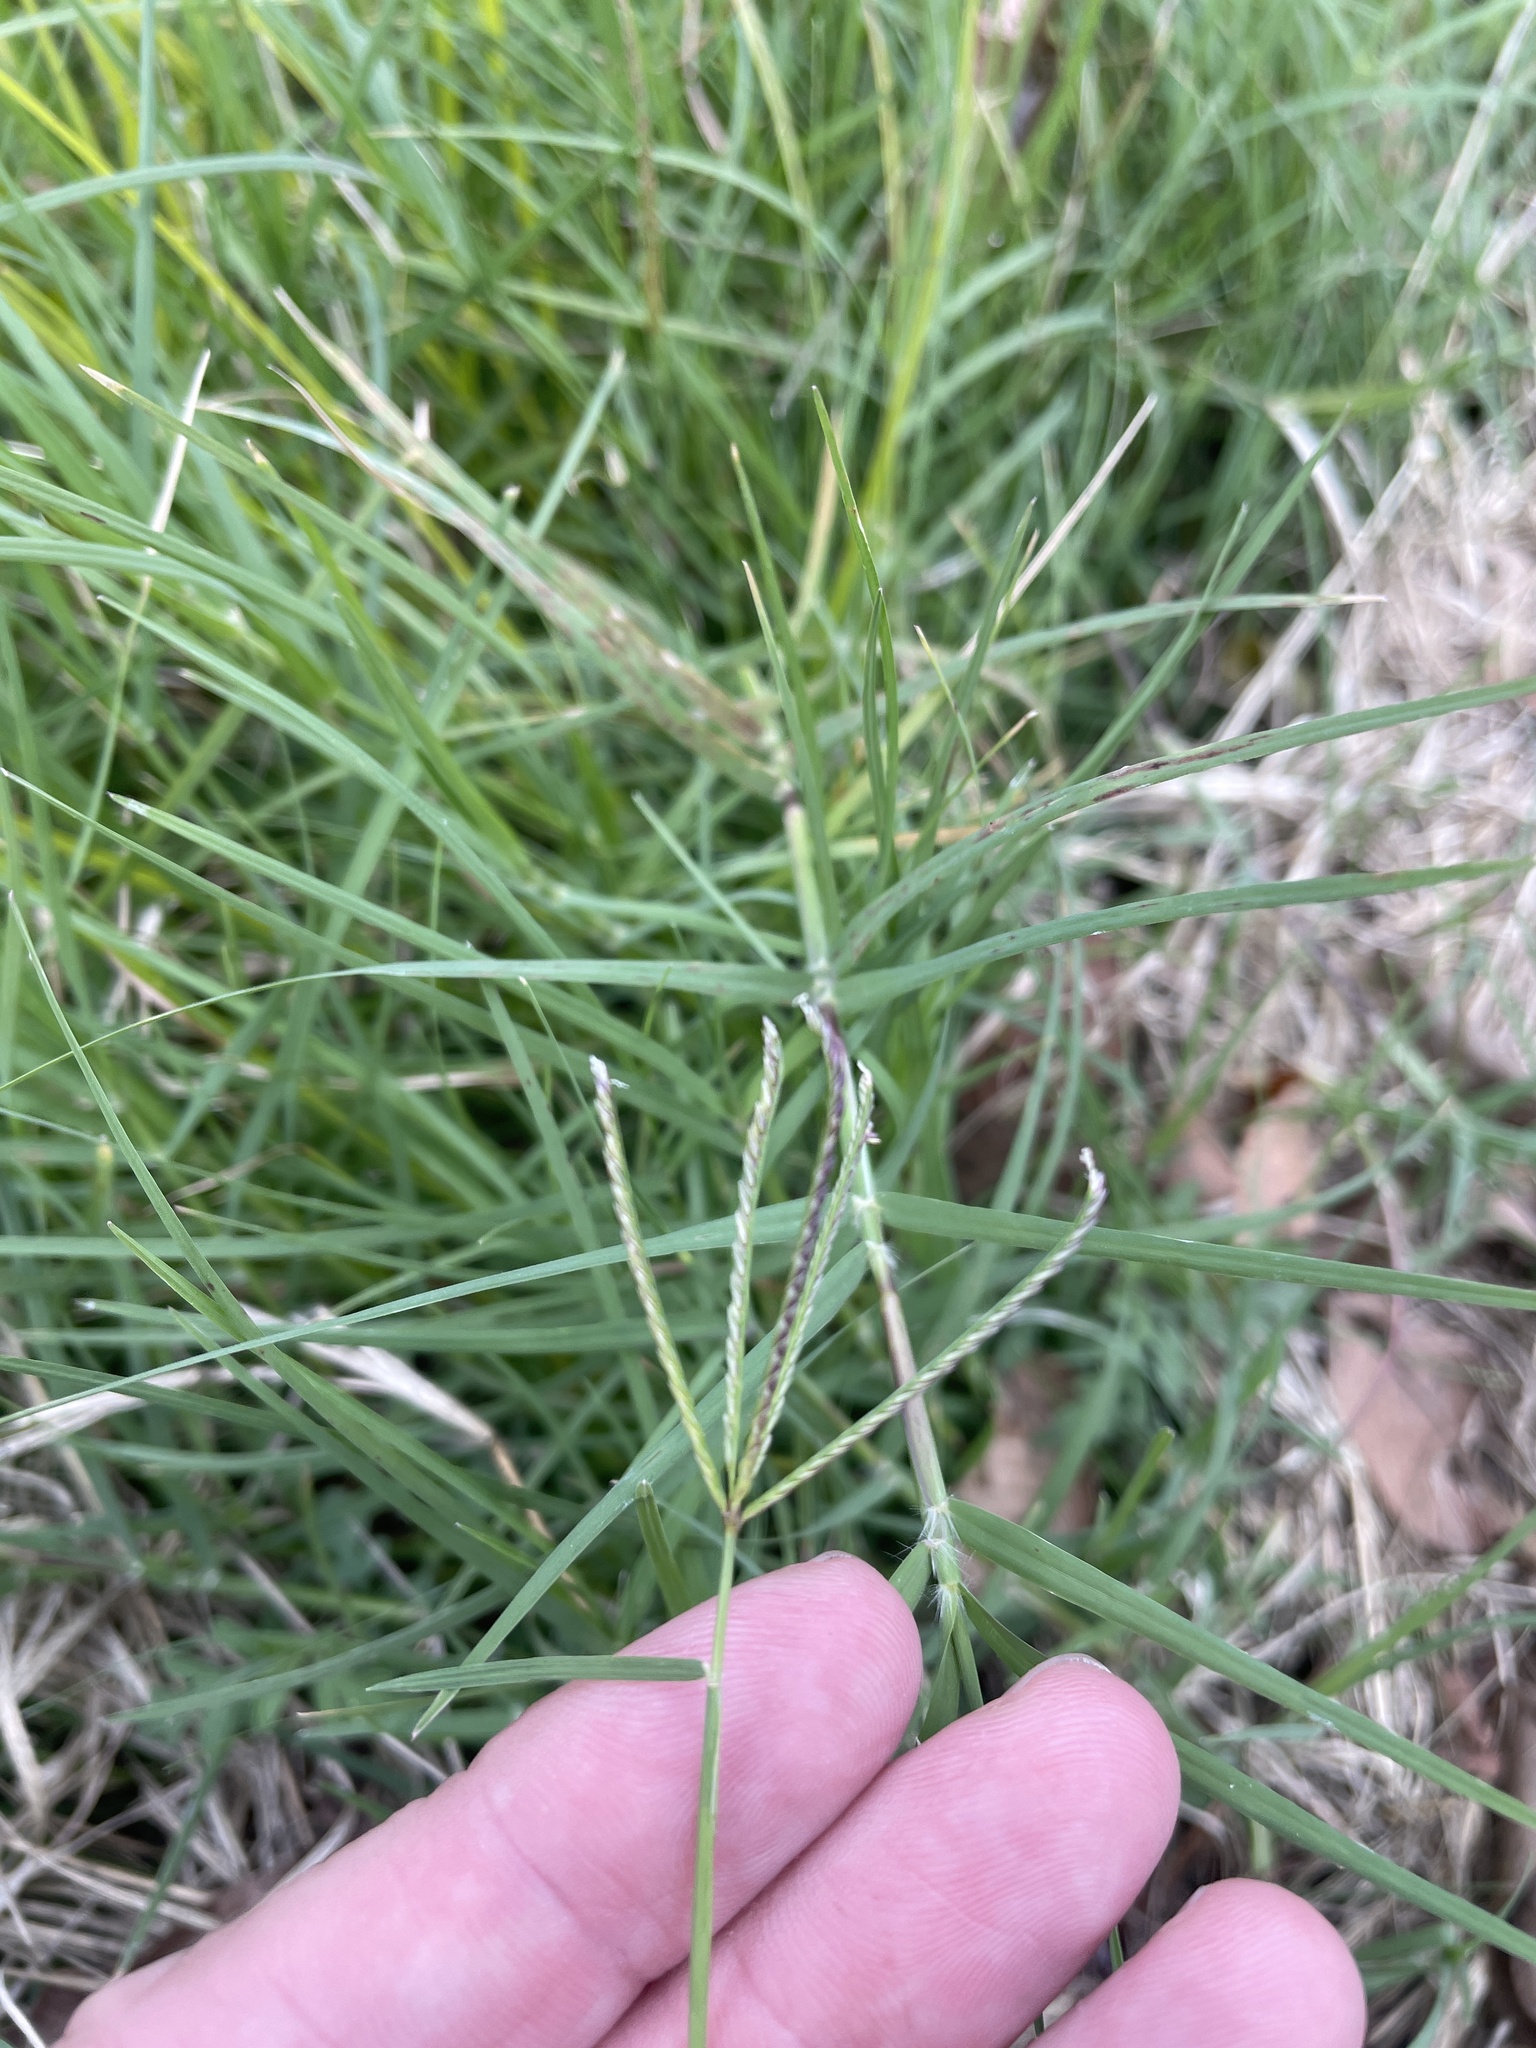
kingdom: Plantae
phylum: Tracheophyta
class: Liliopsida
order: Poales
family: Poaceae
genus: Cynodon
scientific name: Cynodon dactylon
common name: Bermuda grass
